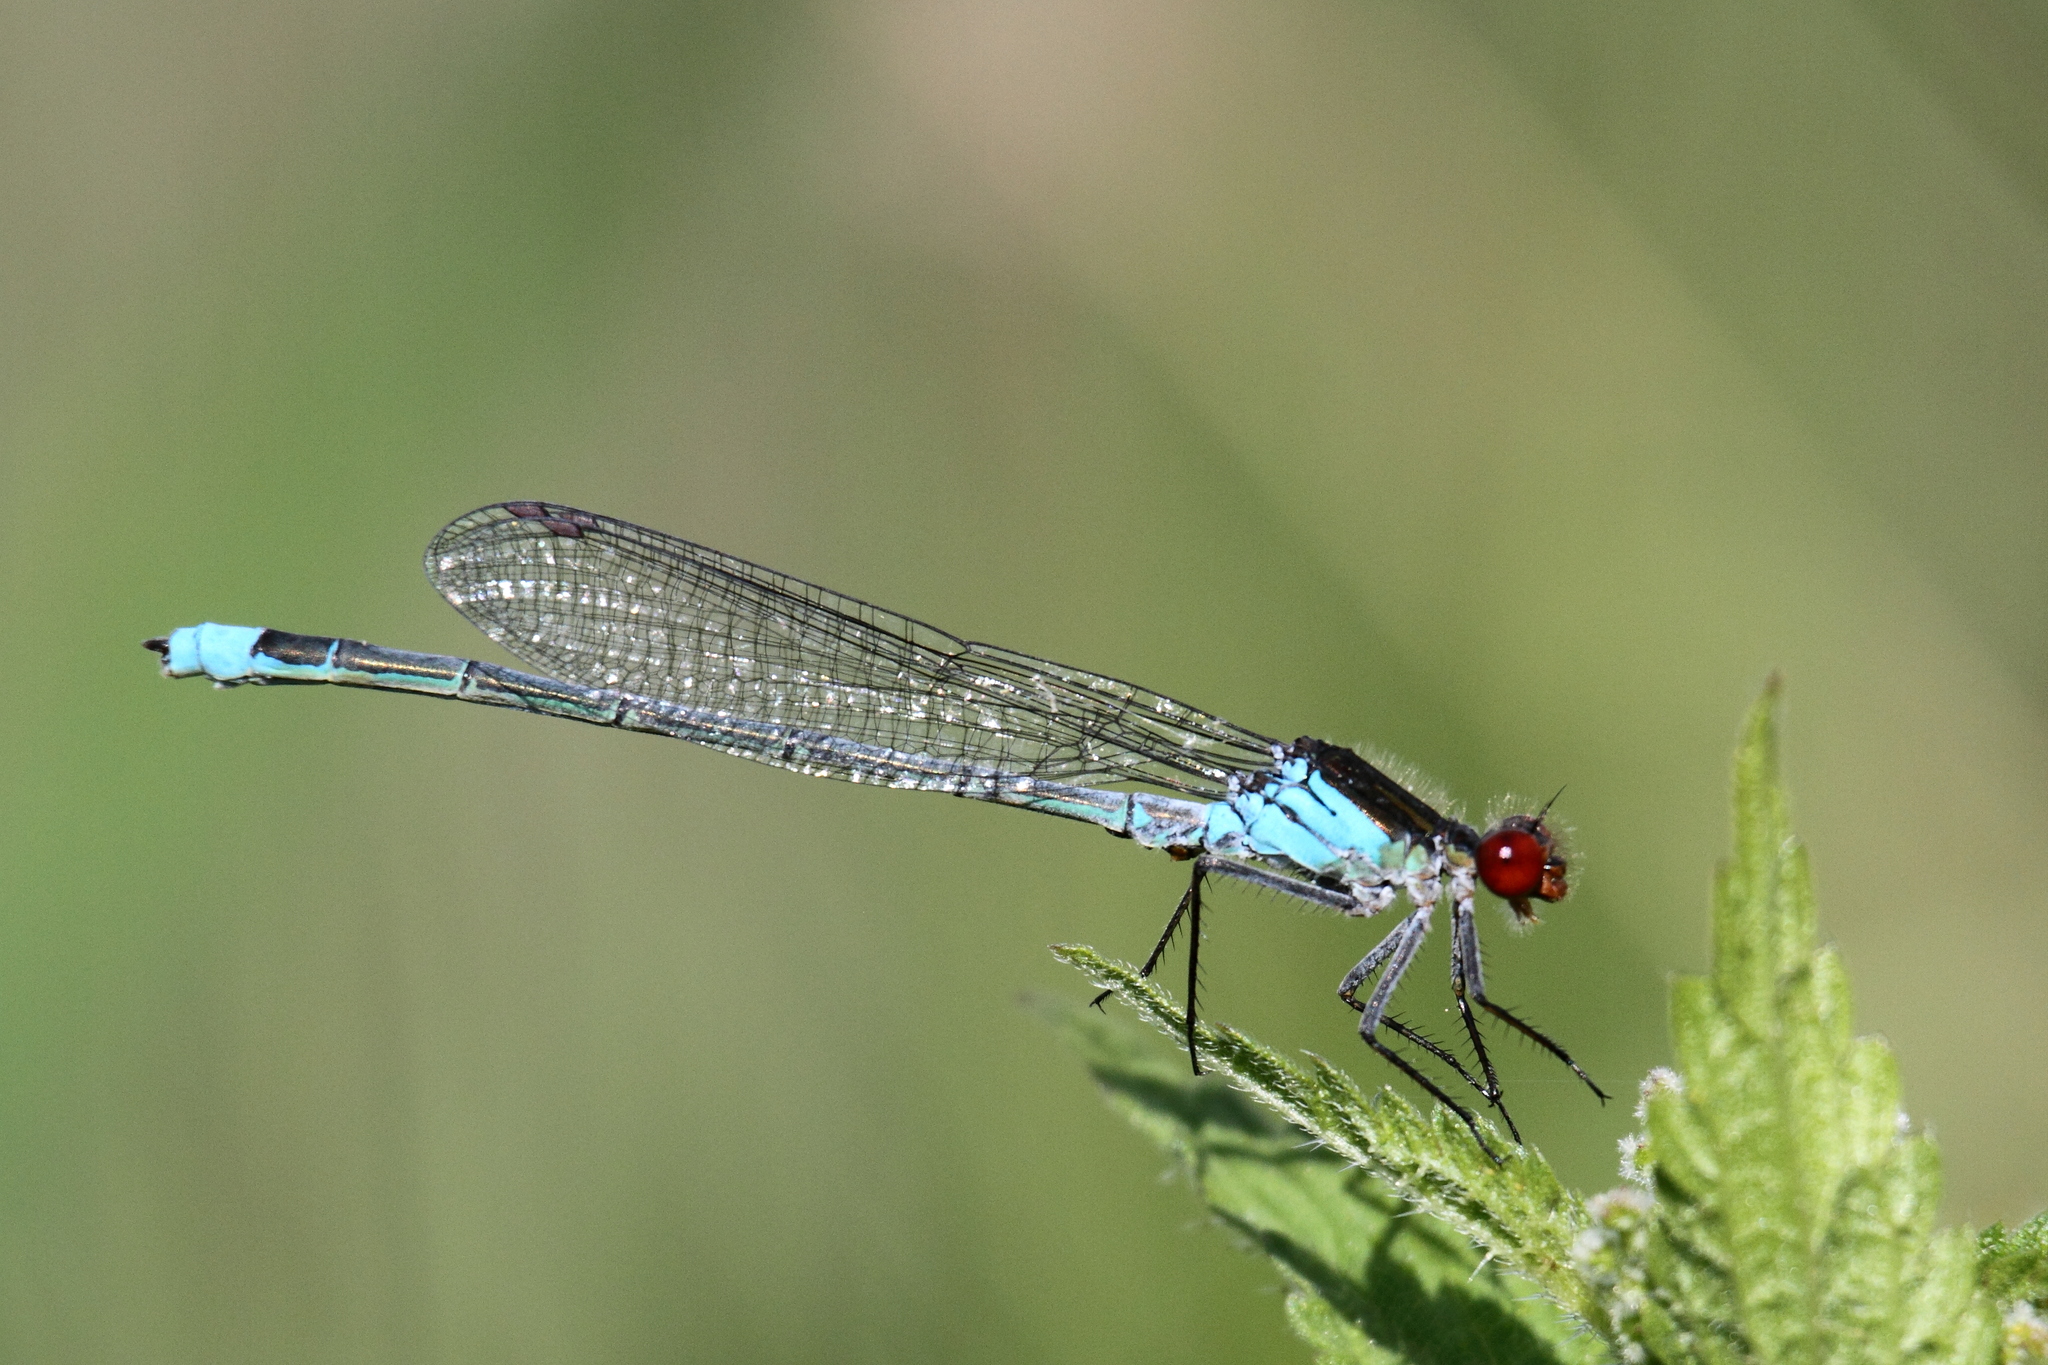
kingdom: Animalia
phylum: Arthropoda
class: Insecta
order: Odonata
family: Coenagrionidae
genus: Erythromma
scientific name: Erythromma najas
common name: Red-eyed damselfly
